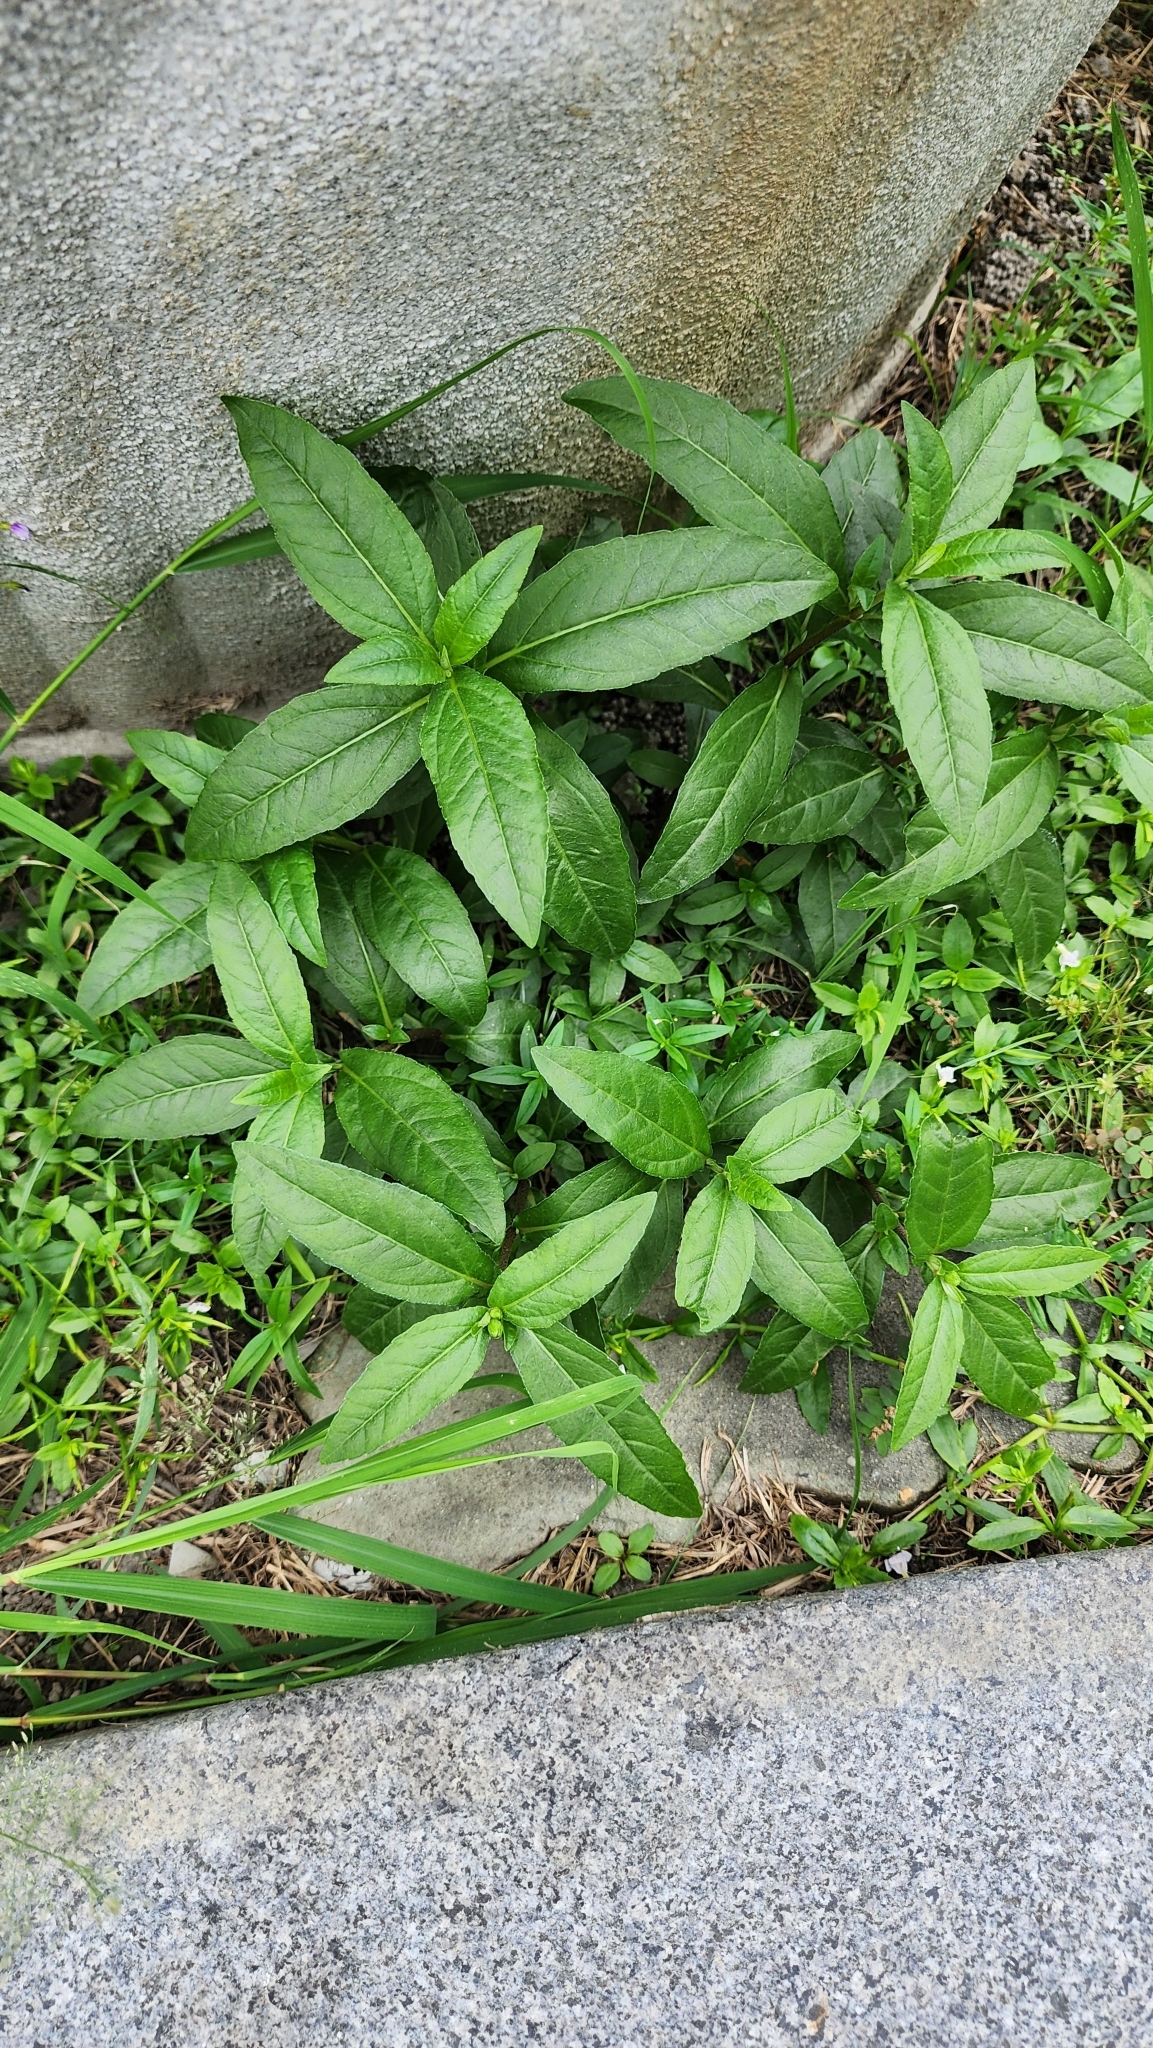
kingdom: Plantae
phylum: Tracheophyta
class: Magnoliopsida
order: Asterales
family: Asteraceae
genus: Eclipta
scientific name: Eclipta prostrata
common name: False daisy
